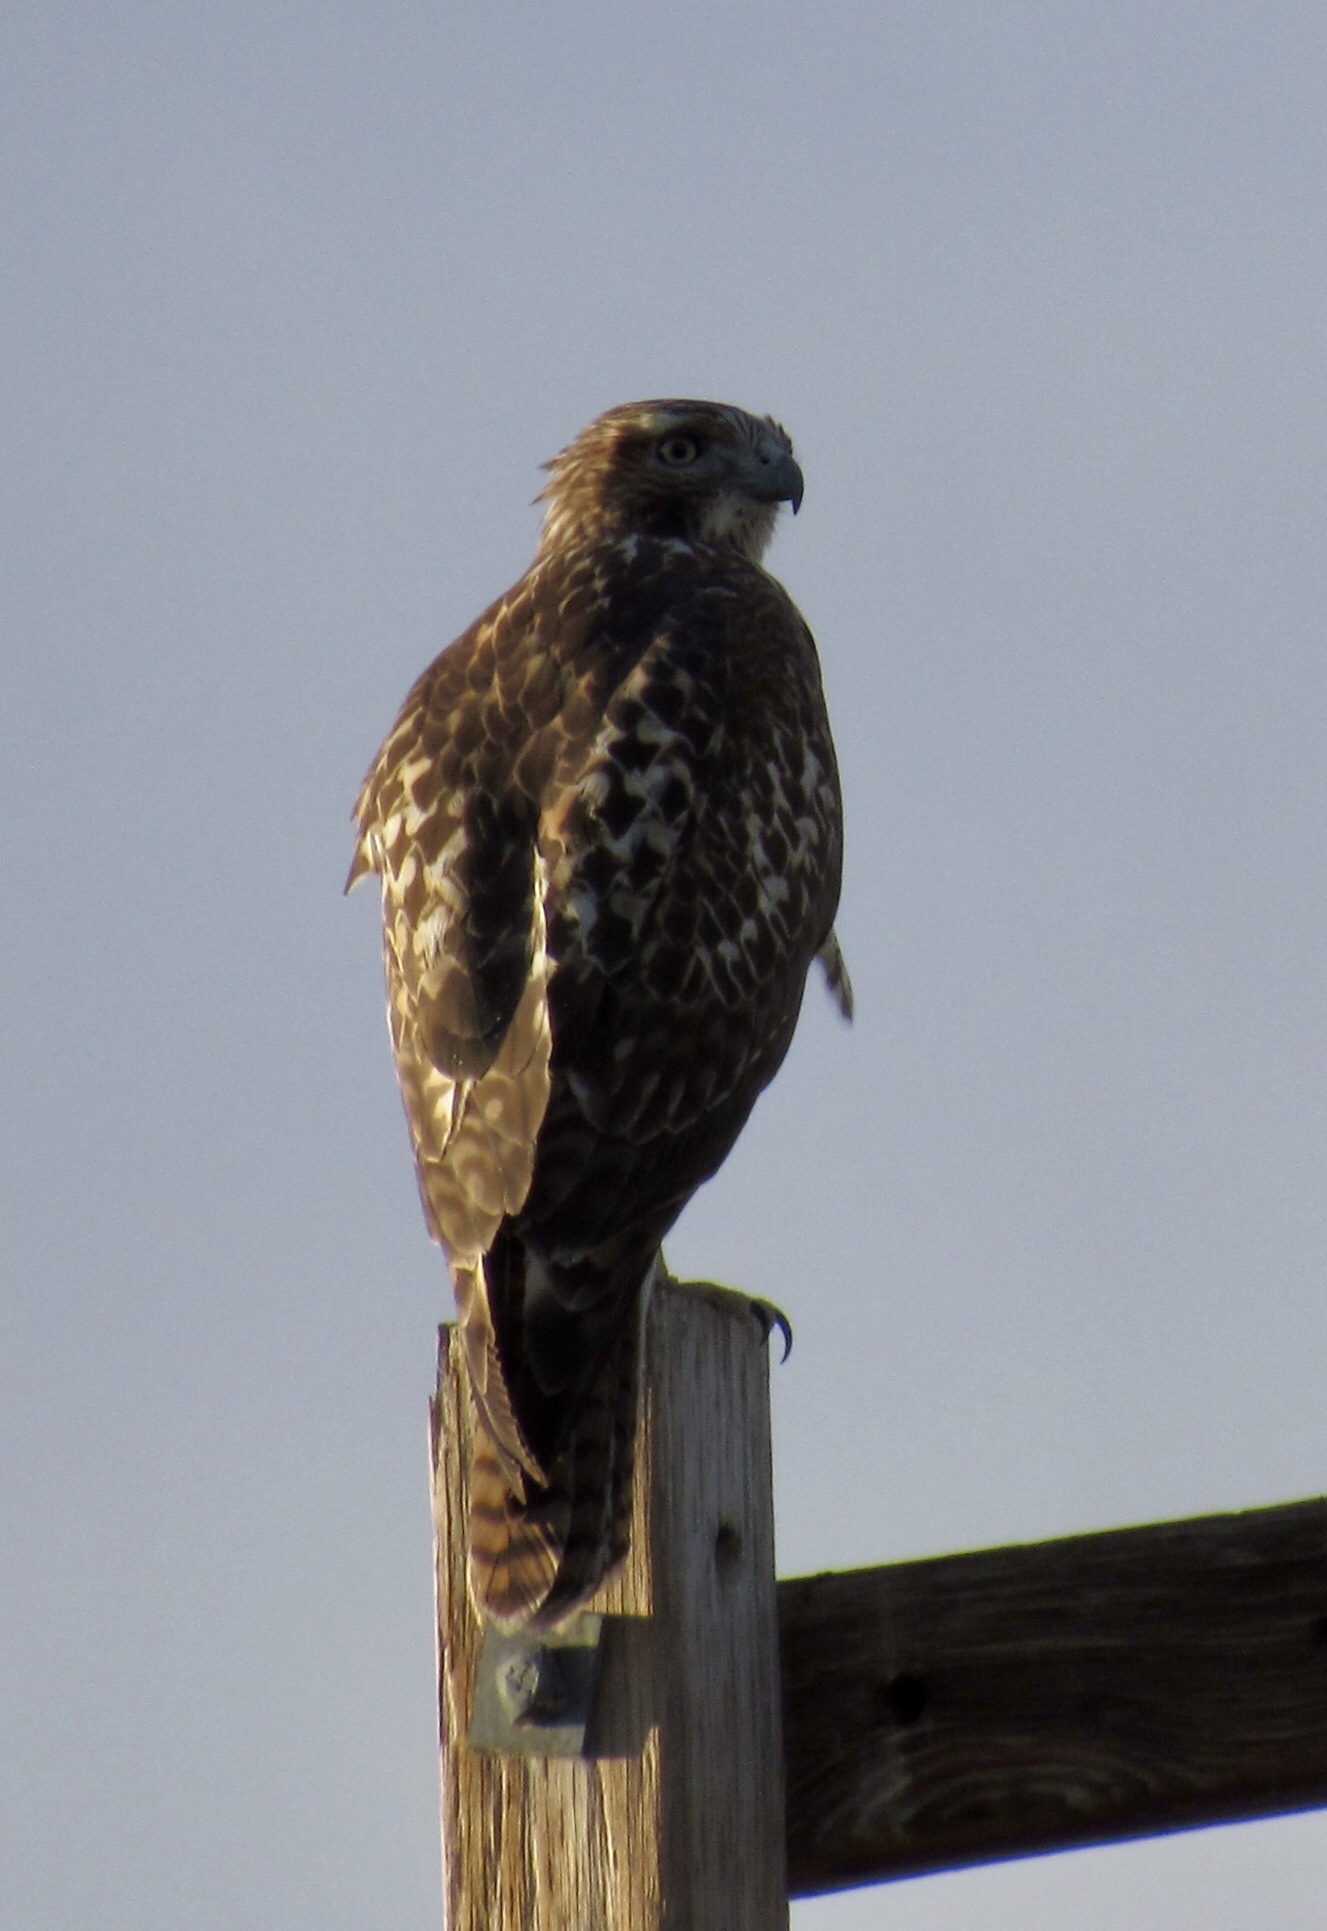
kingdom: Animalia
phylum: Chordata
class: Aves
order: Accipitriformes
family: Accipitridae
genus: Buteo
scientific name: Buteo jamaicensis
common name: Red-tailed hawk
